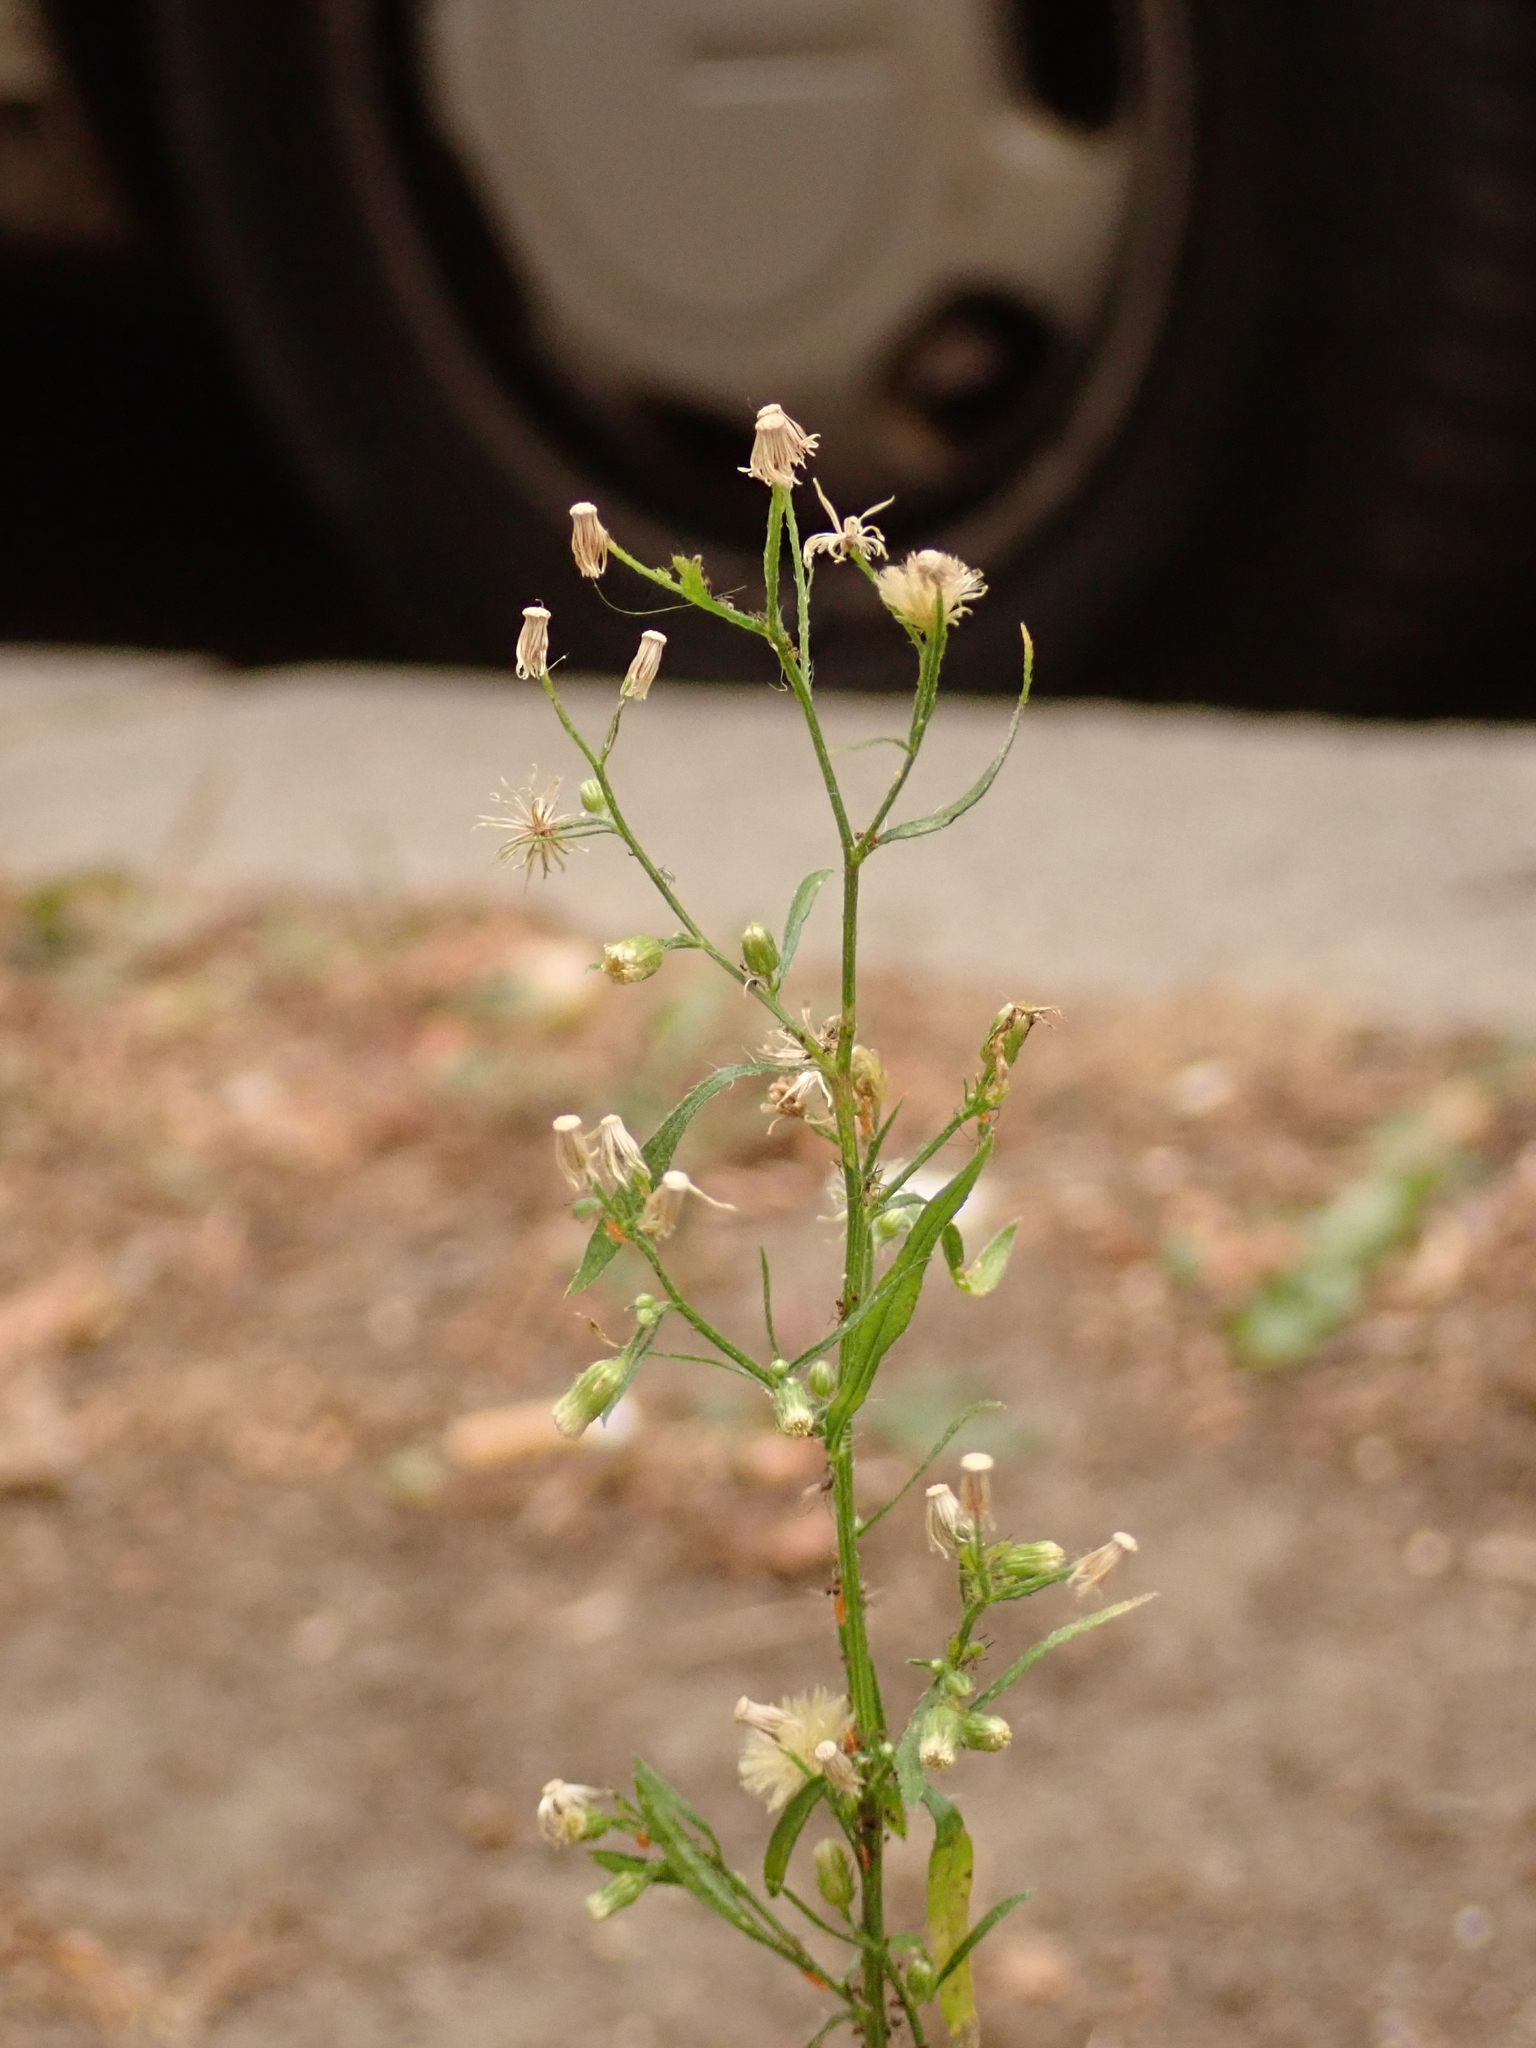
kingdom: Plantae
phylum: Tracheophyta
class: Magnoliopsida
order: Asterales
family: Asteraceae
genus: Erigeron
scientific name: Erigeron canadensis
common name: Canadian fleabane
